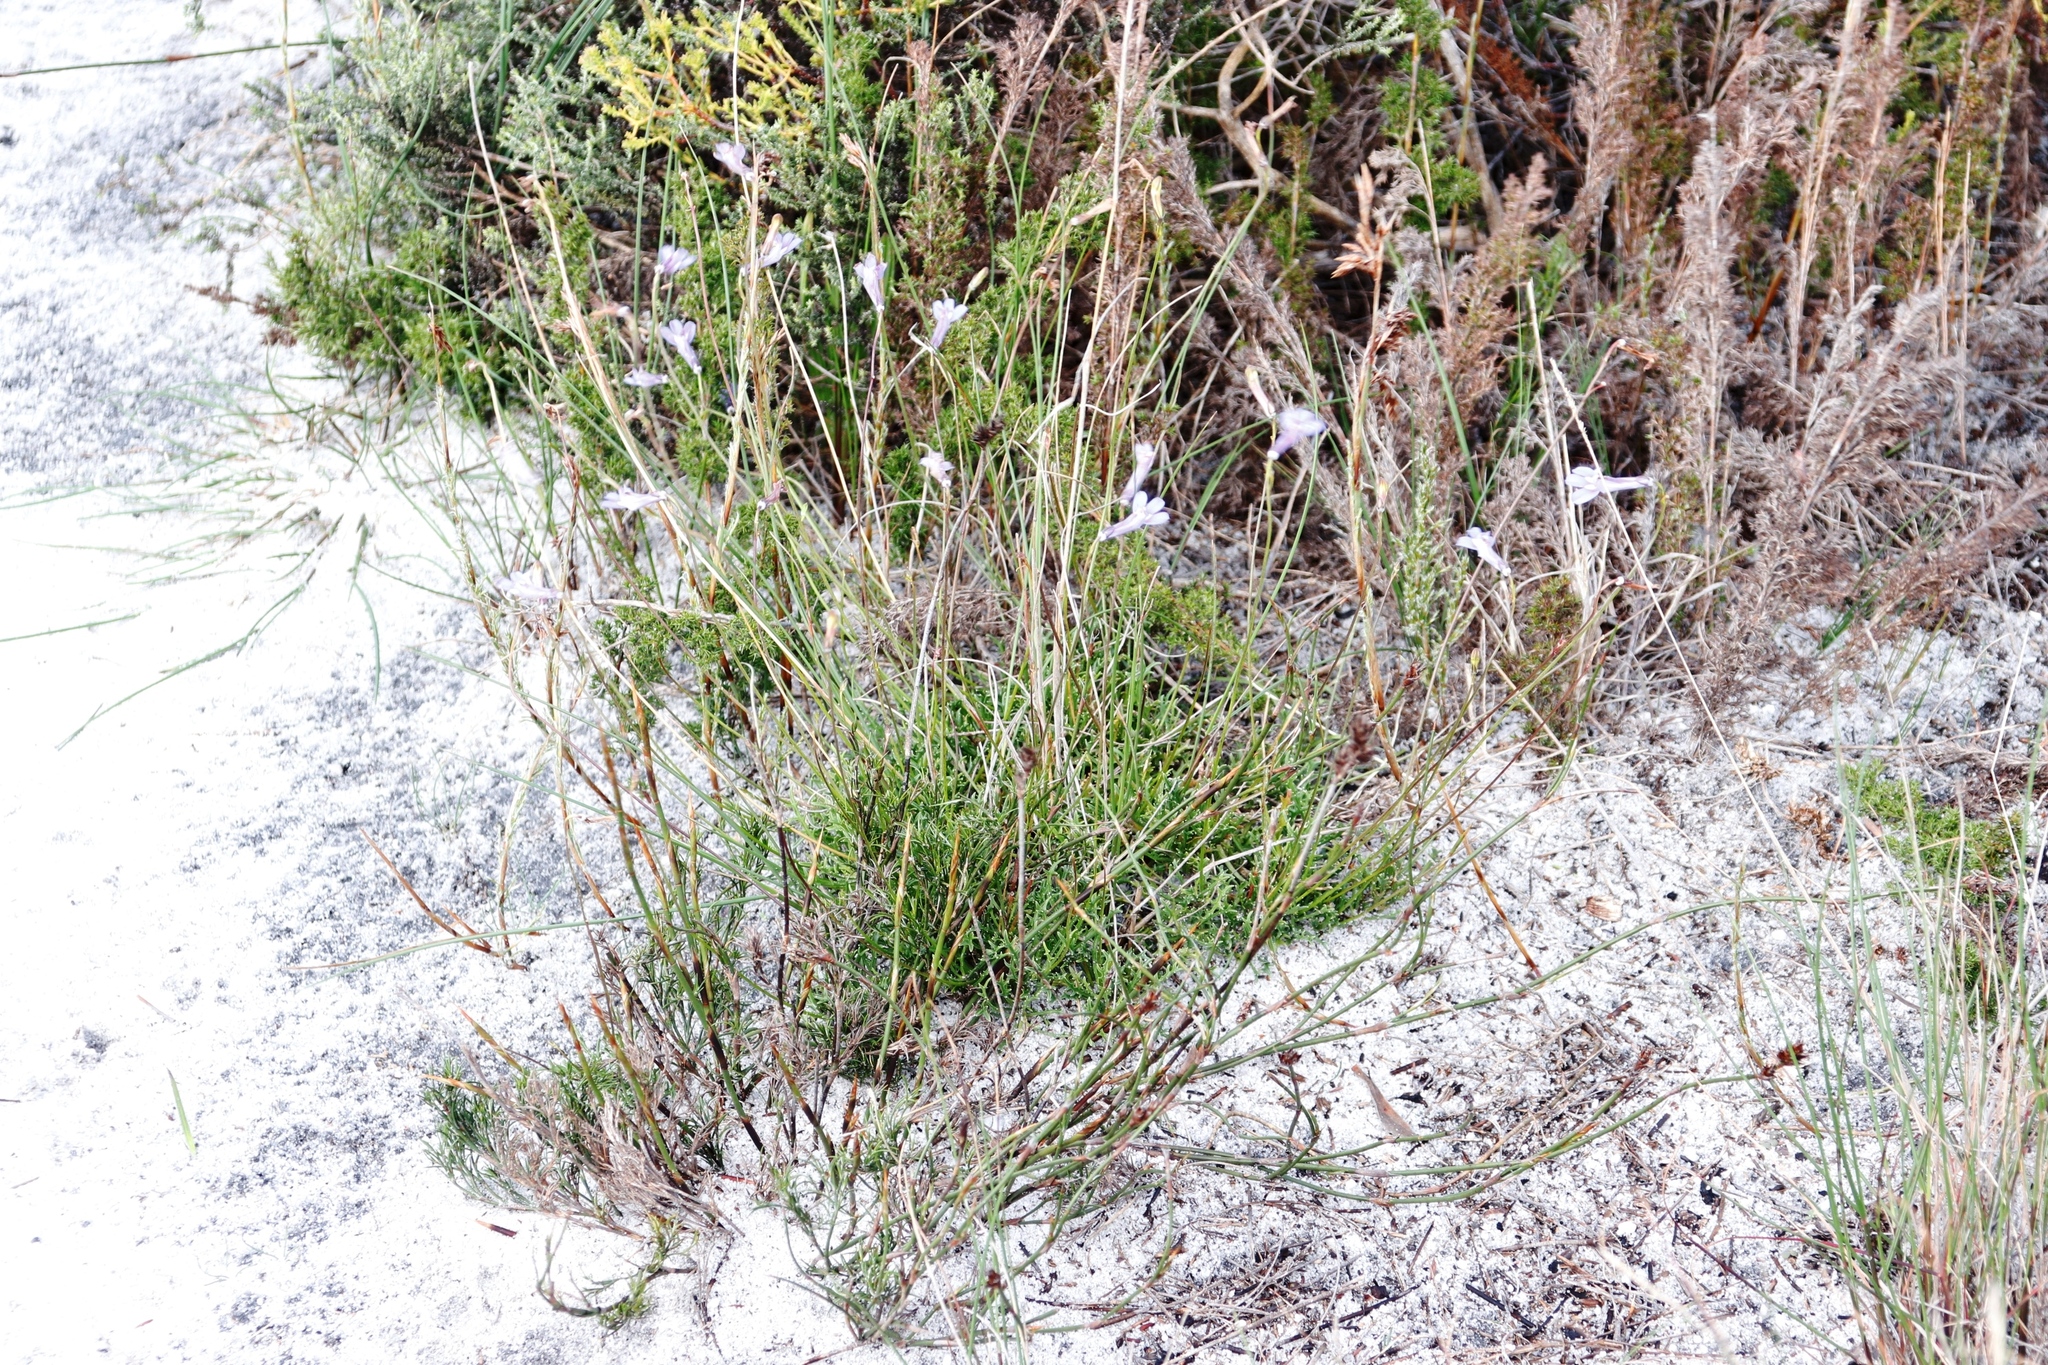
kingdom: Plantae
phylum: Tracheophyta
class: Magnoliopsida
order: Asterales
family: Campanulaceae
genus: Lobelia
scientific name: Lobelia coronopifolia
